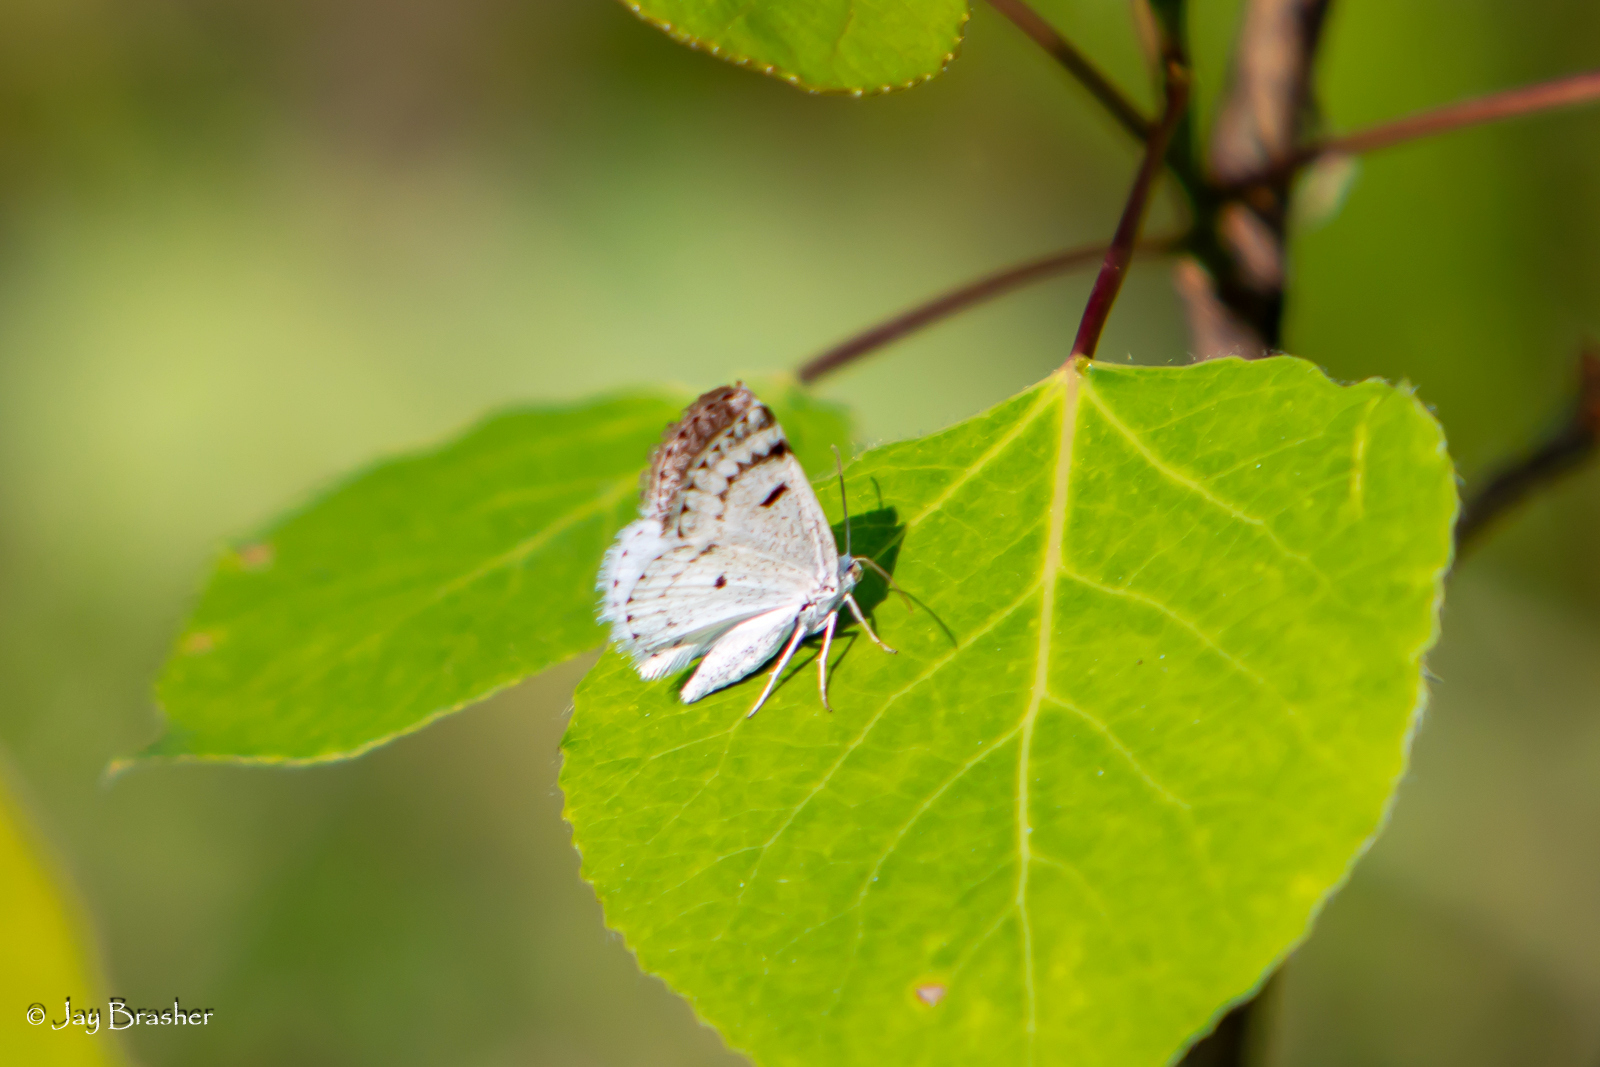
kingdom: Animalia
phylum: Arthropoda
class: Insecta
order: Lepidoptera
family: Geometridae
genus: Lomographa
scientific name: Lomographa semiclarata
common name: Bluish spring moth
